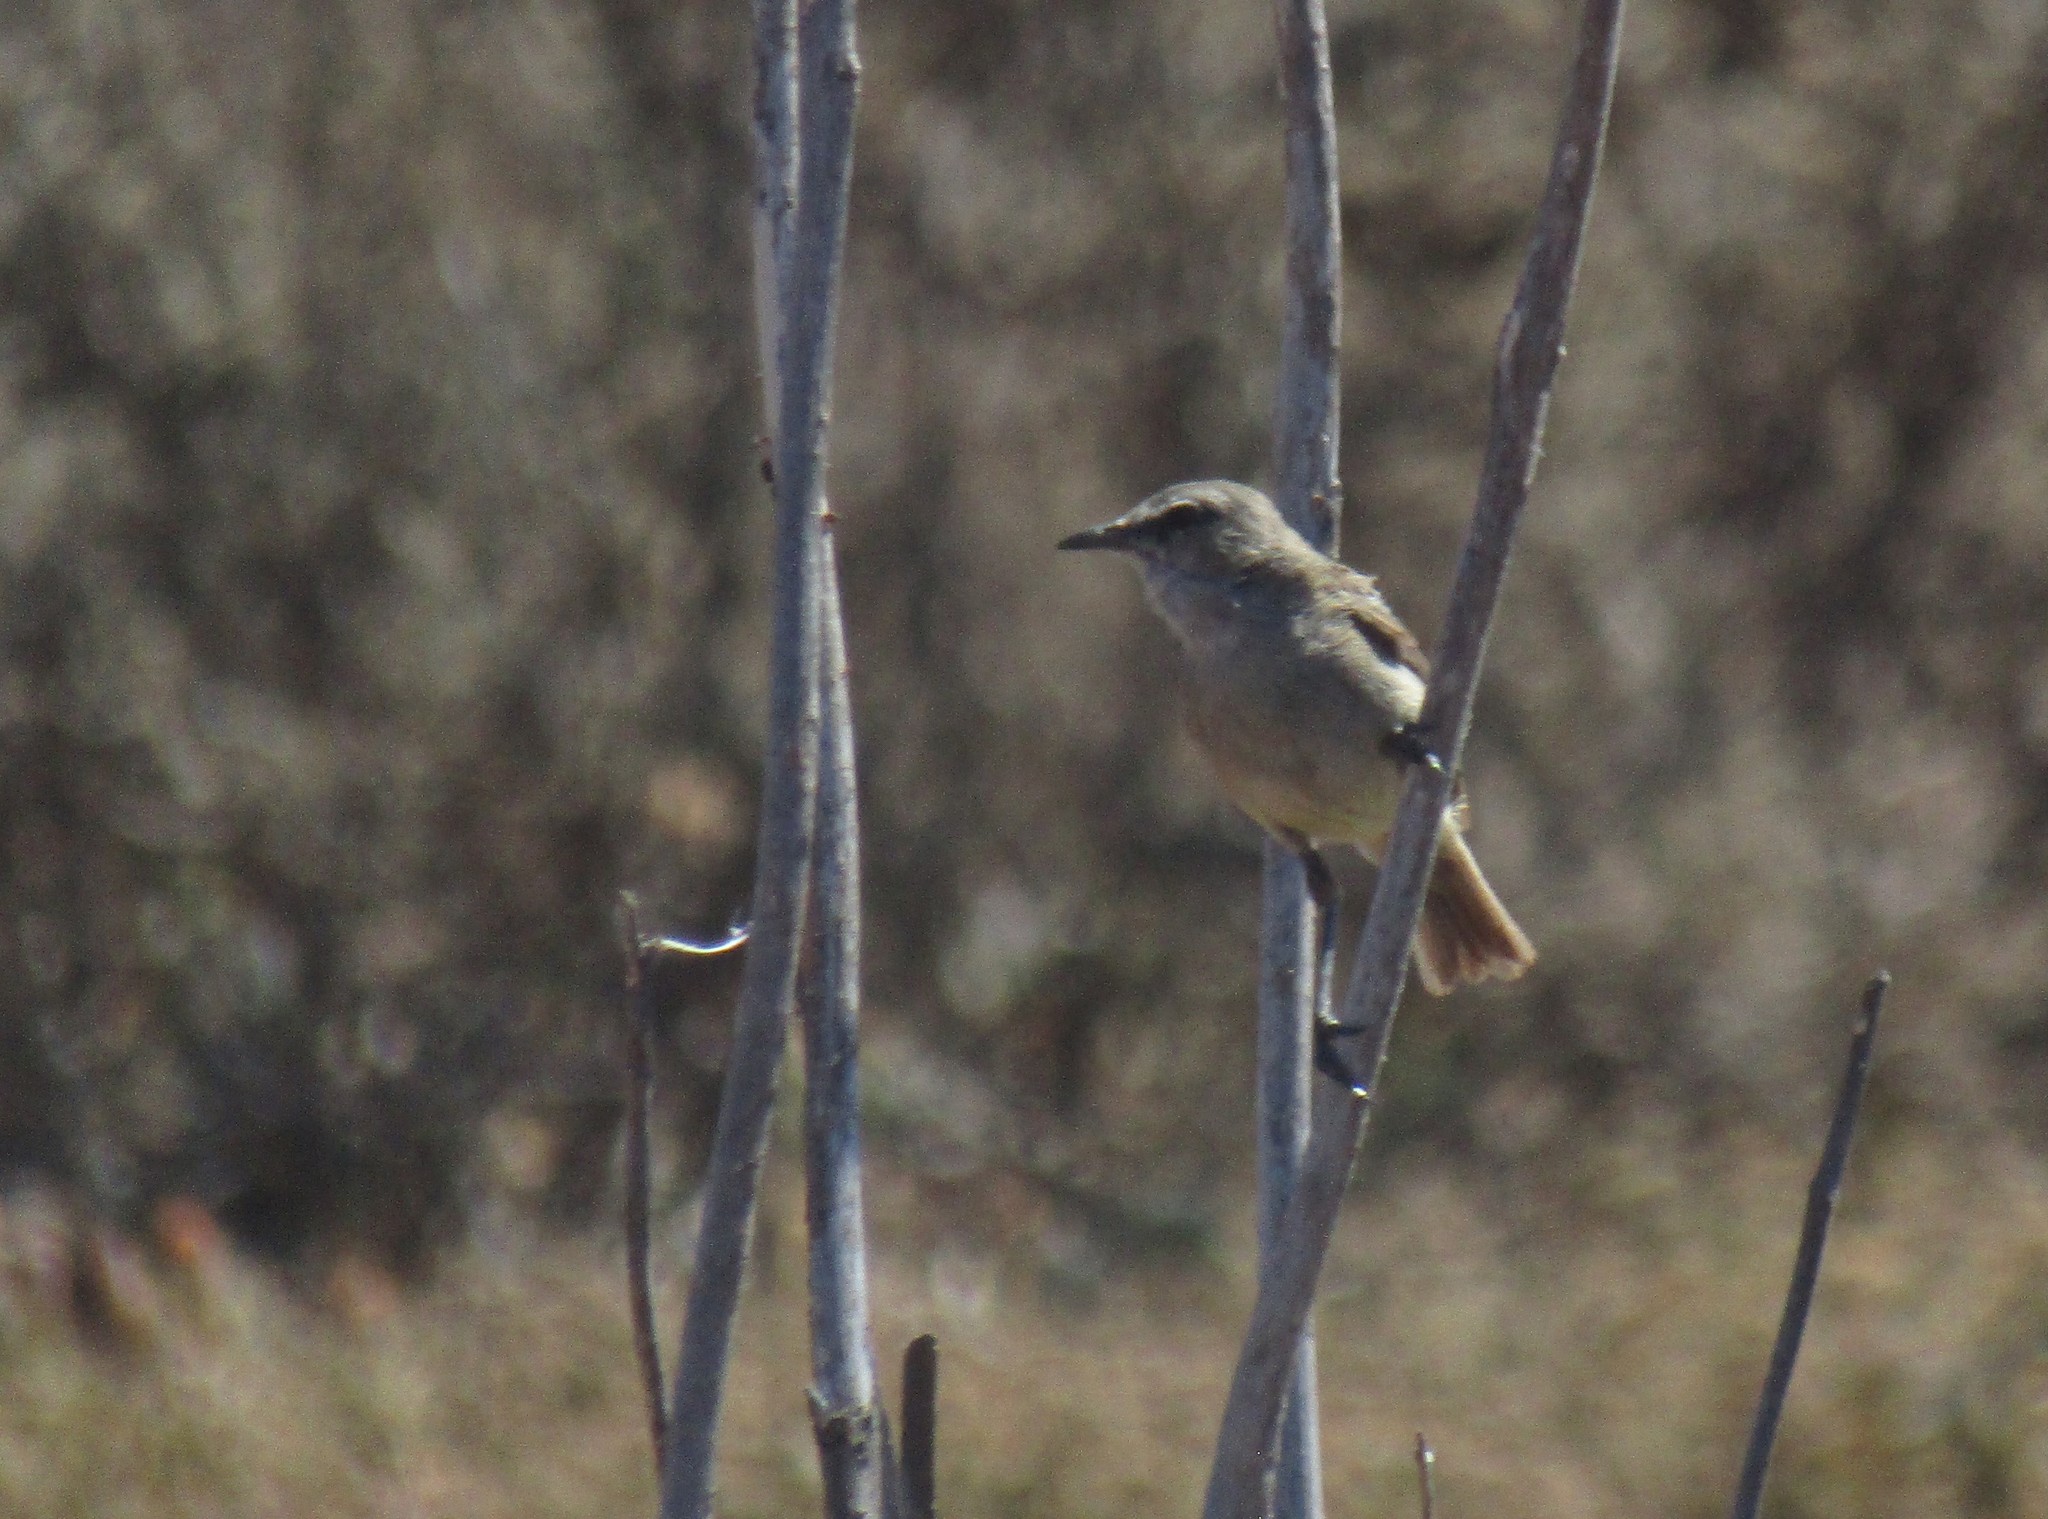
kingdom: Animalia
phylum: Chordata
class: Aves
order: Passeriformes
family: Cisticolidae
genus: Eremomela
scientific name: Eremomela icteropygialis
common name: Yellow-bellied eremomela
